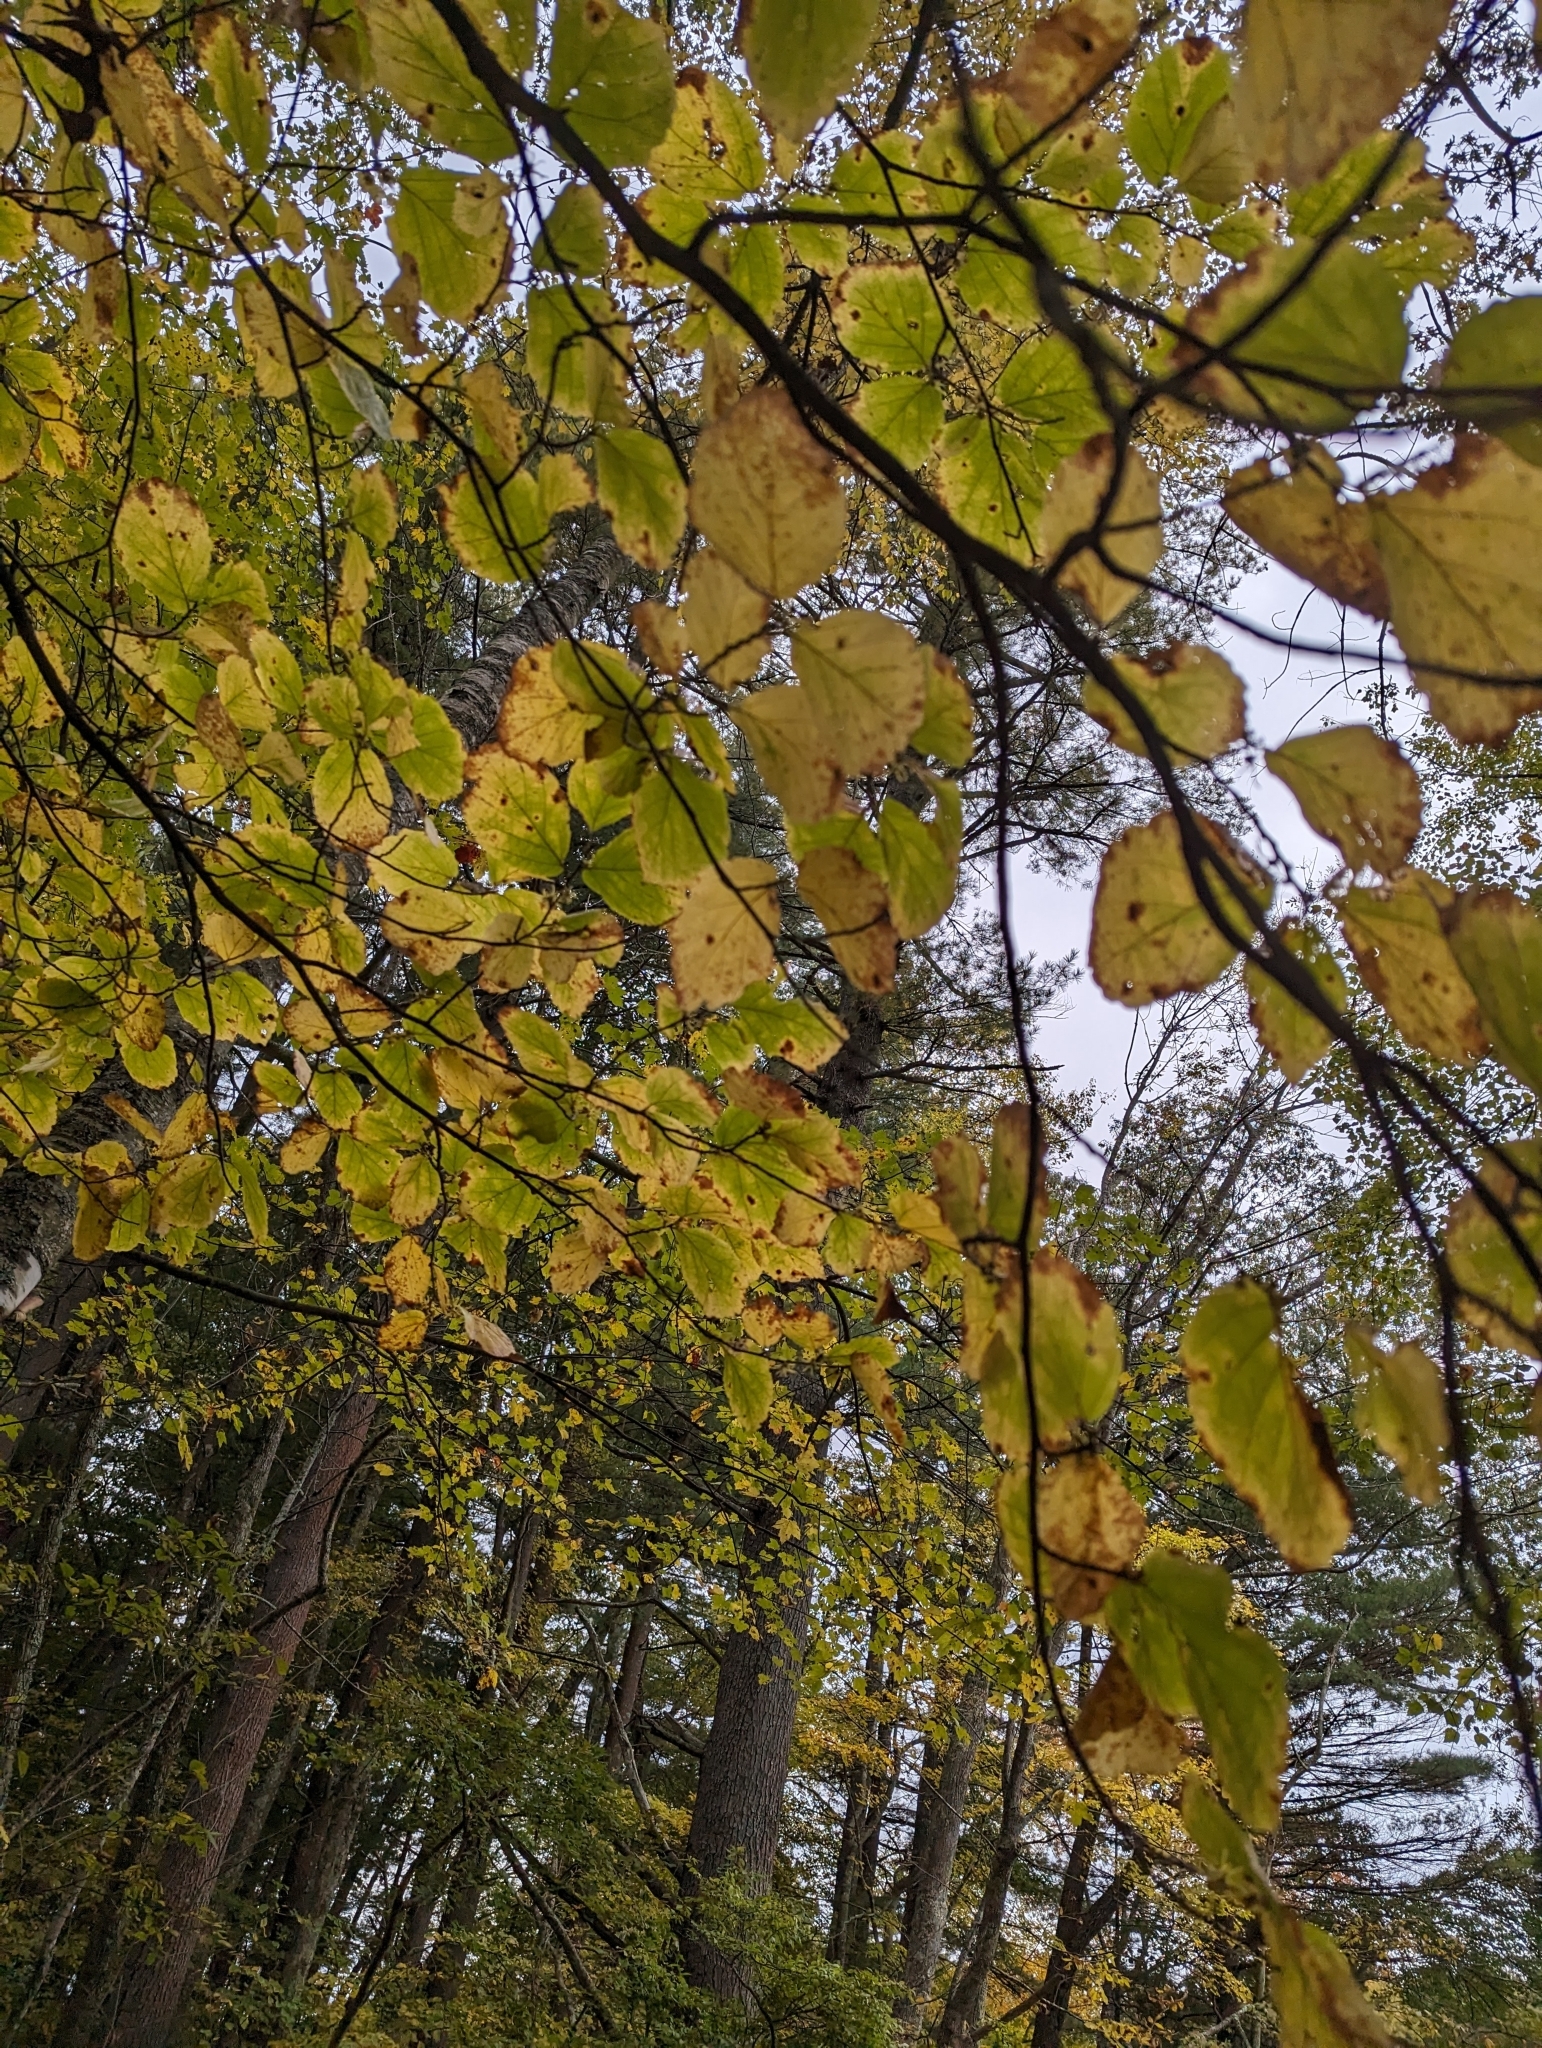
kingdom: Plantae
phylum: Tracheophyta
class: Magnoliopsida
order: Saxifragales
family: Hamamelidaceae
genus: Hamamelis
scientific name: Hamamelis virginiana
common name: Witch-hazel
